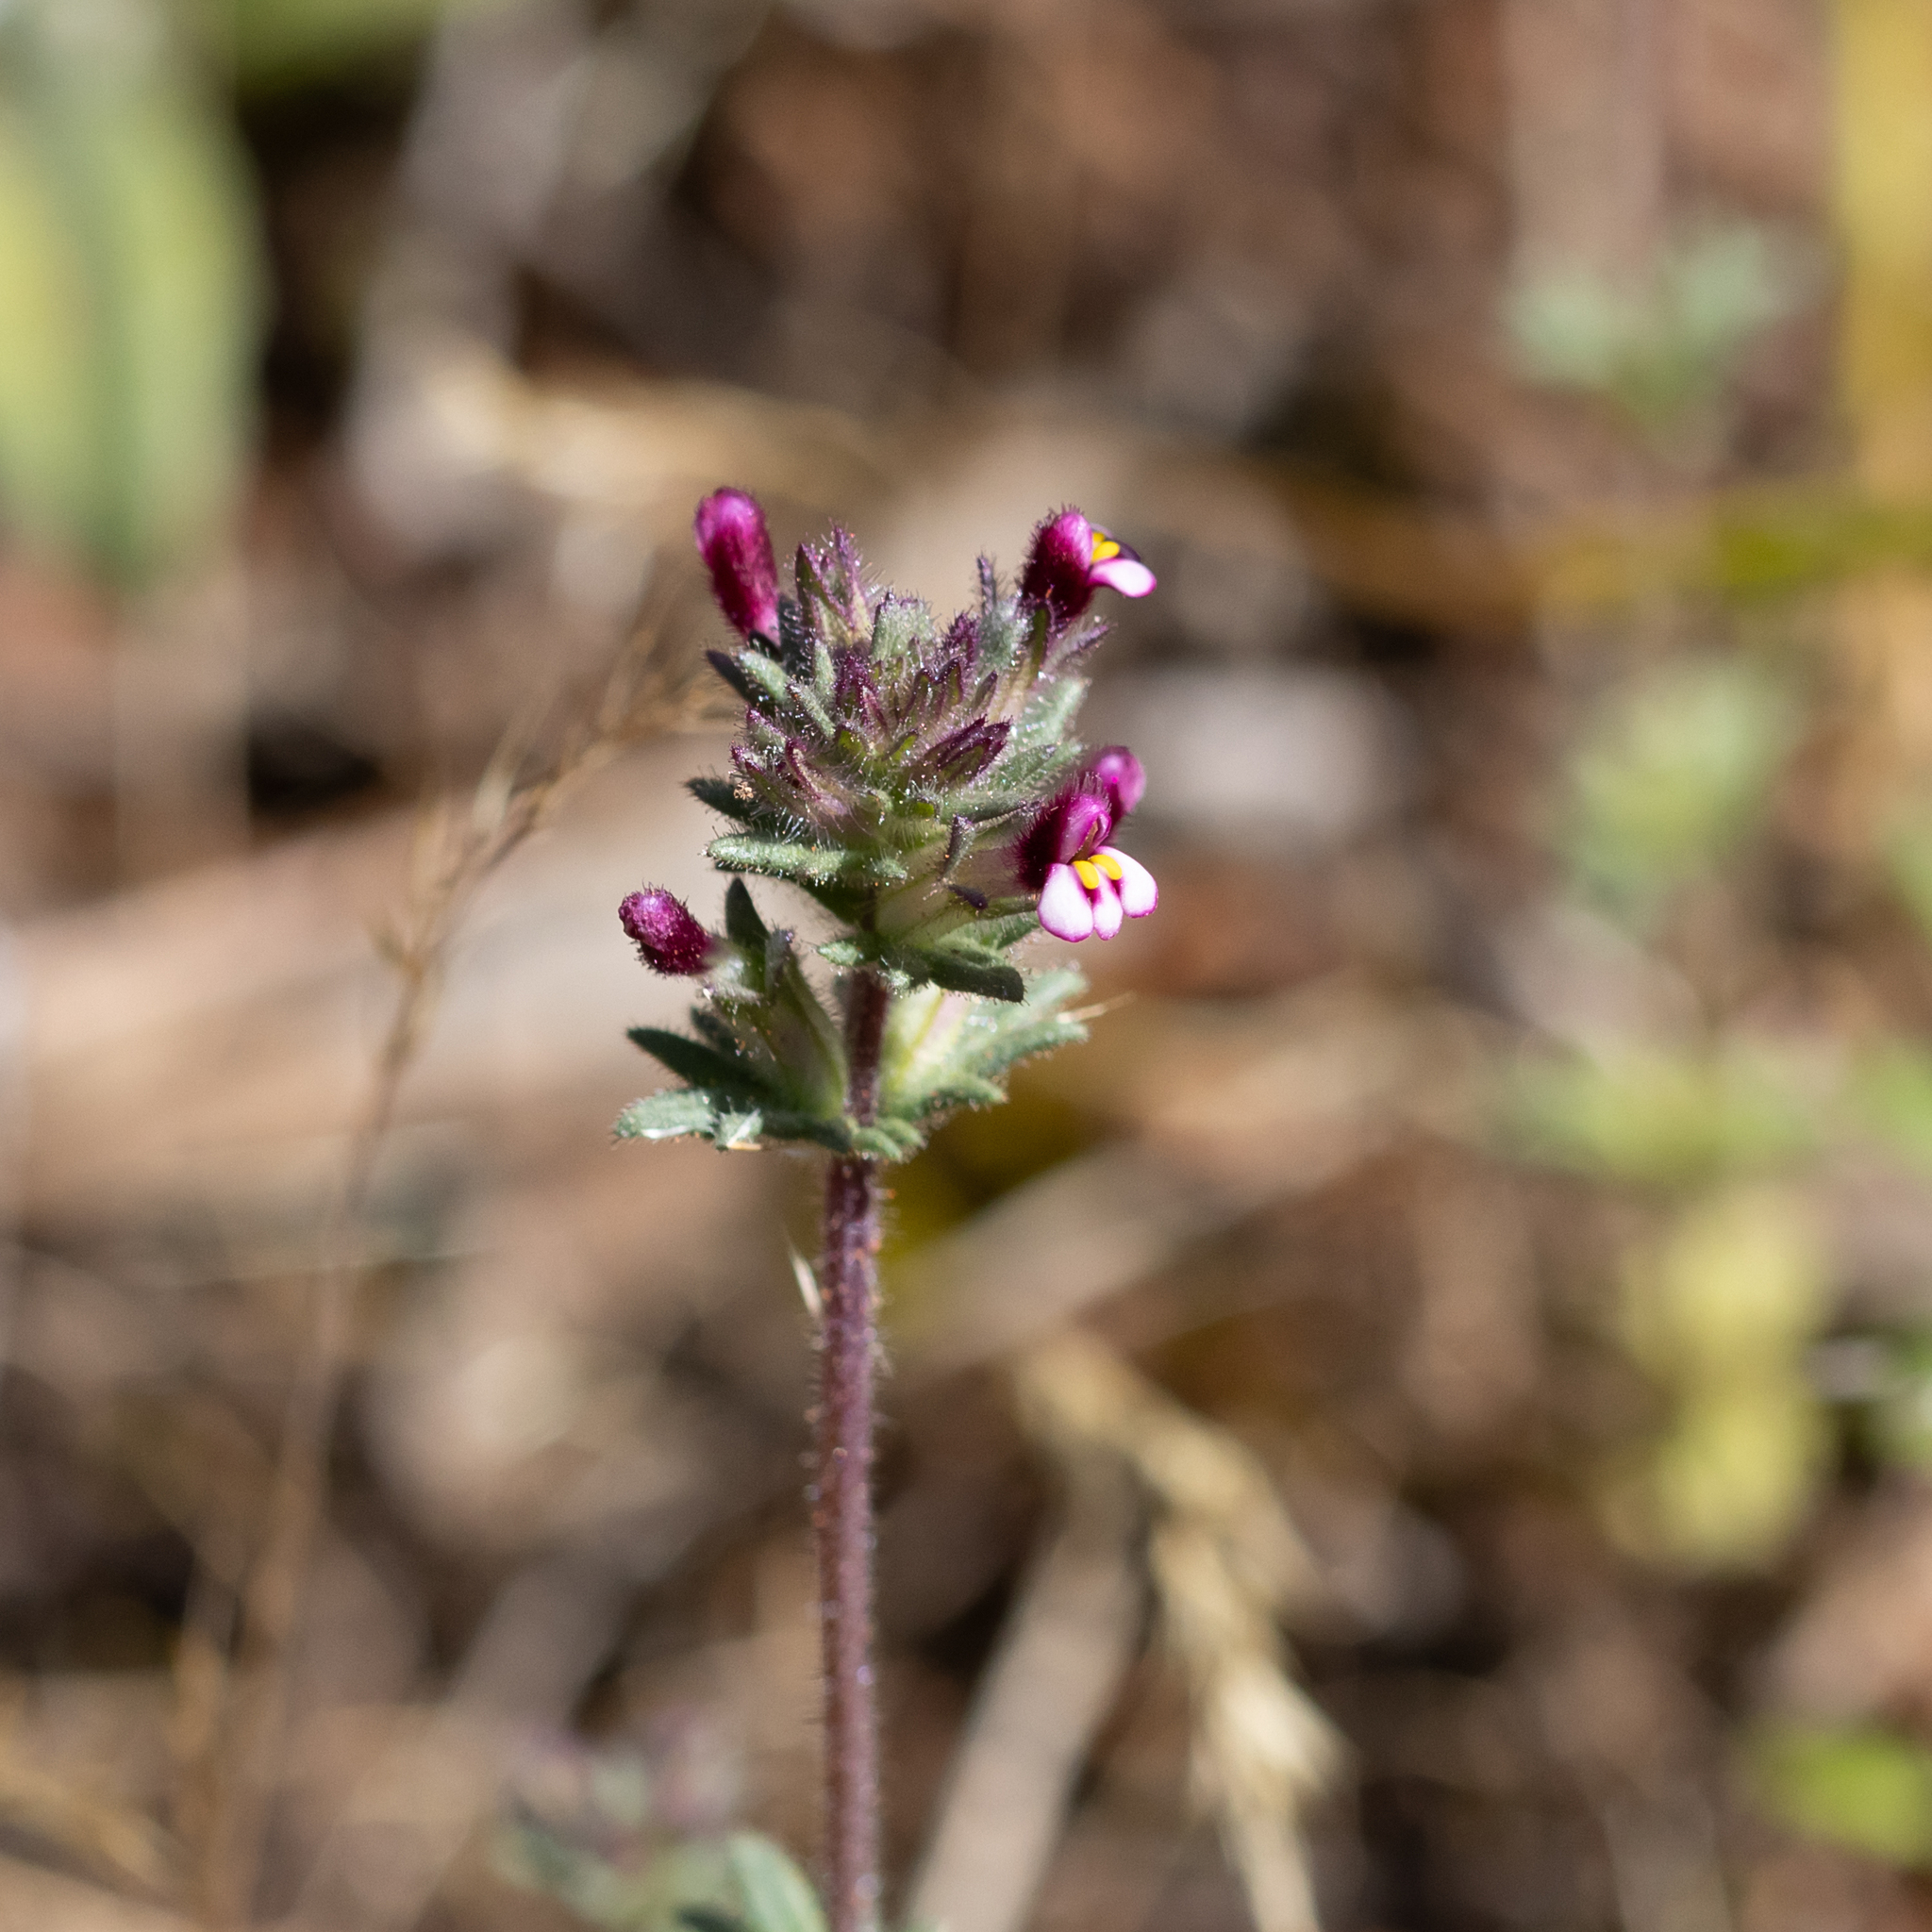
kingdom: Plantae
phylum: Tracheophyta
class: Magnoliopsida
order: Lamiales
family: Orobanchaceae
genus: Parentucellia
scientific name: Parentucellia latifolia
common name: Broadleaf glandweed
